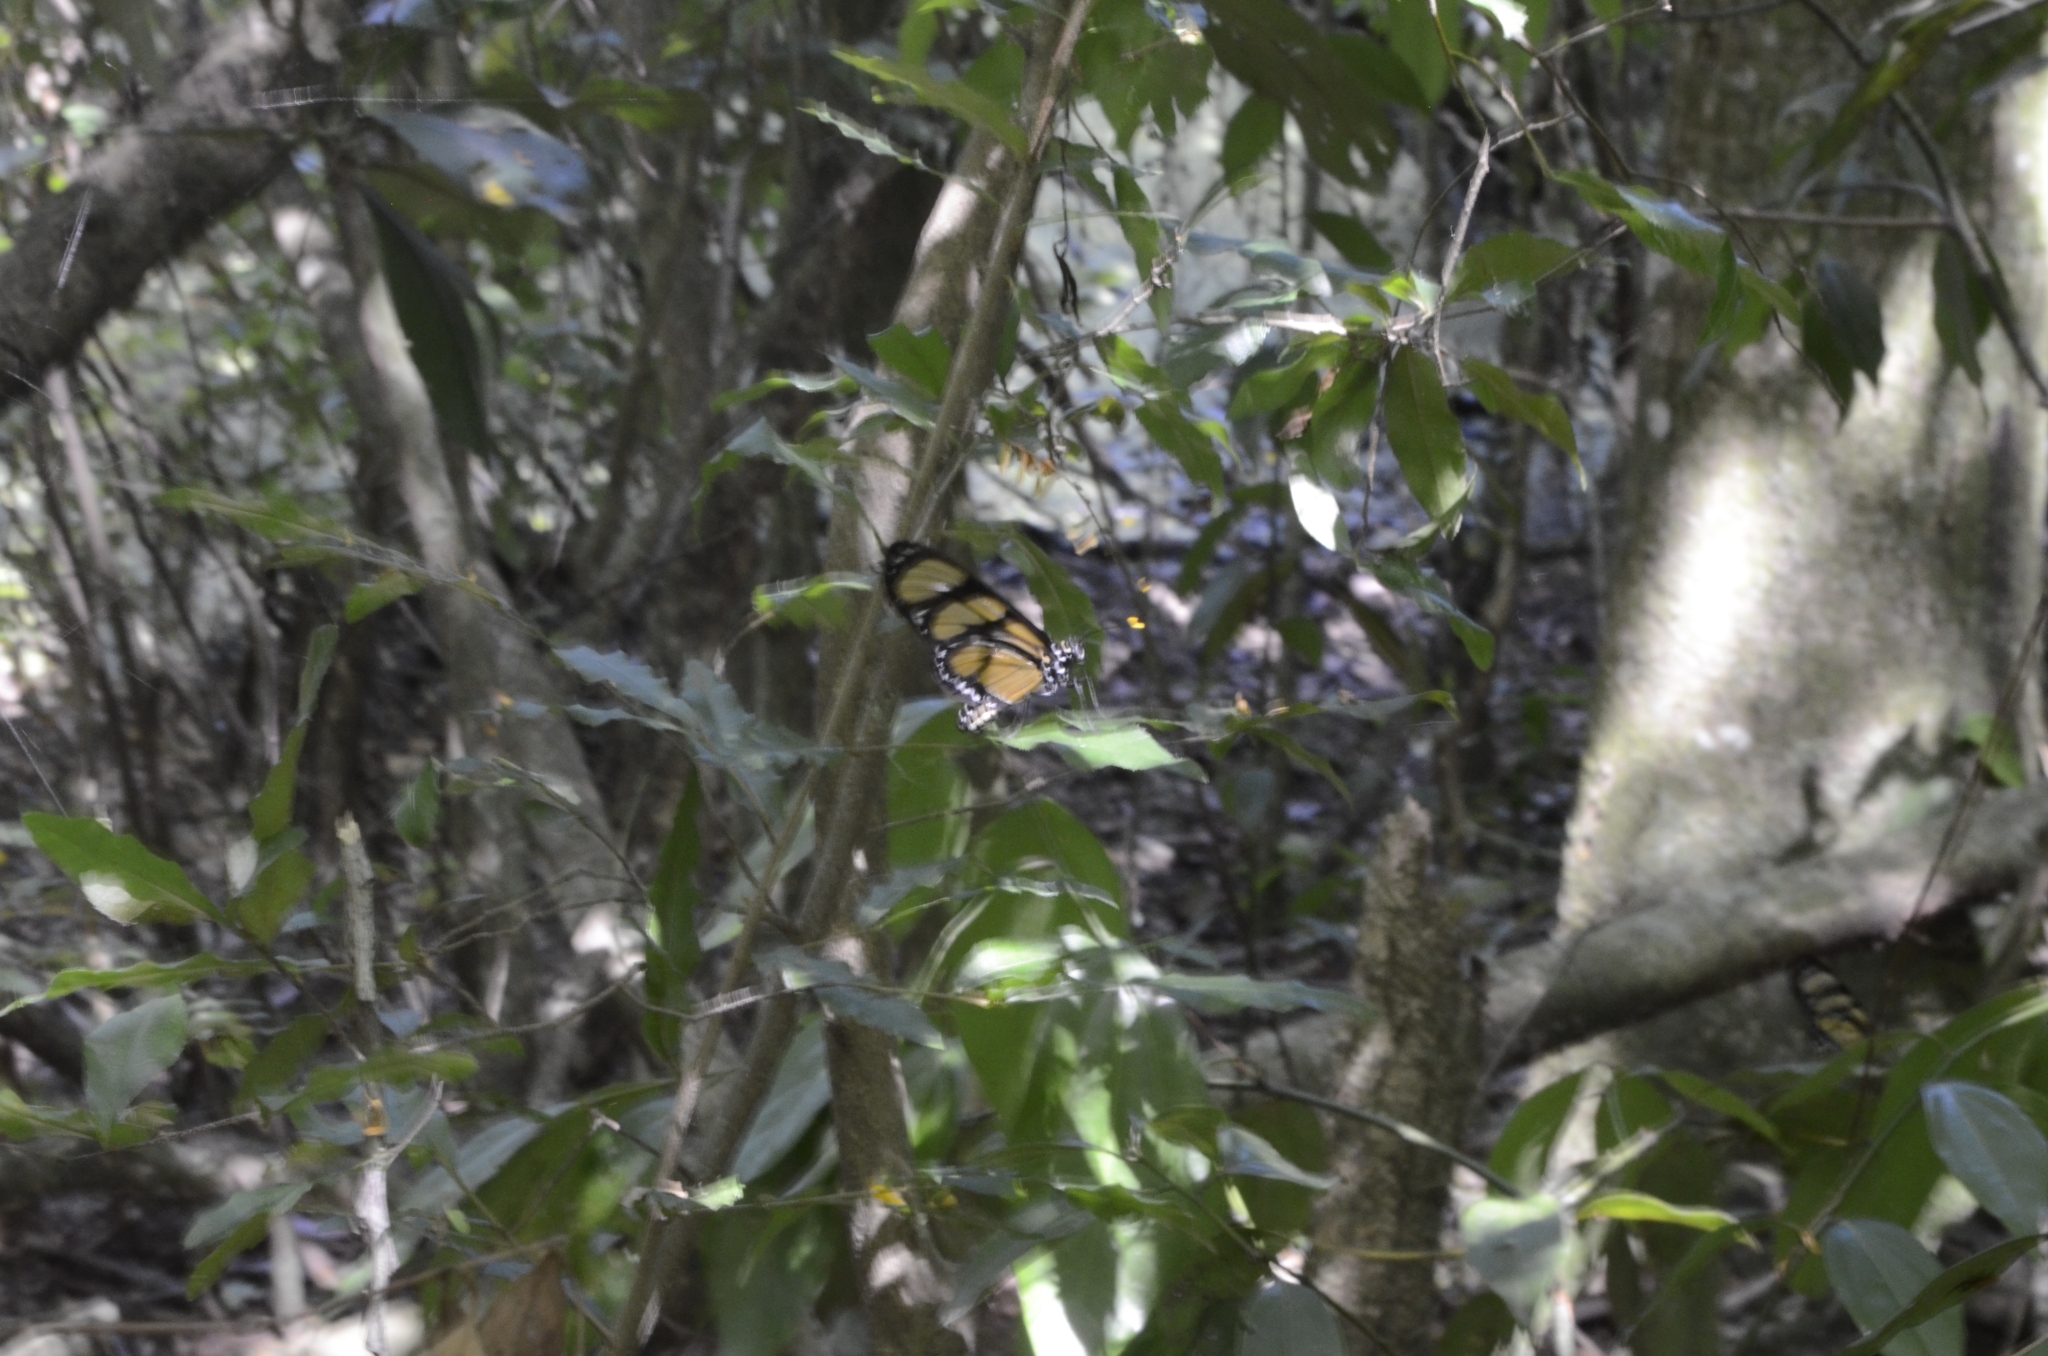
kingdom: Animalia
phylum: Arthropoda
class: Insecta
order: Lepidoptera
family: Nymphalidae
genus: Methona
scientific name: Methona themisto
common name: Themisto amberwing
